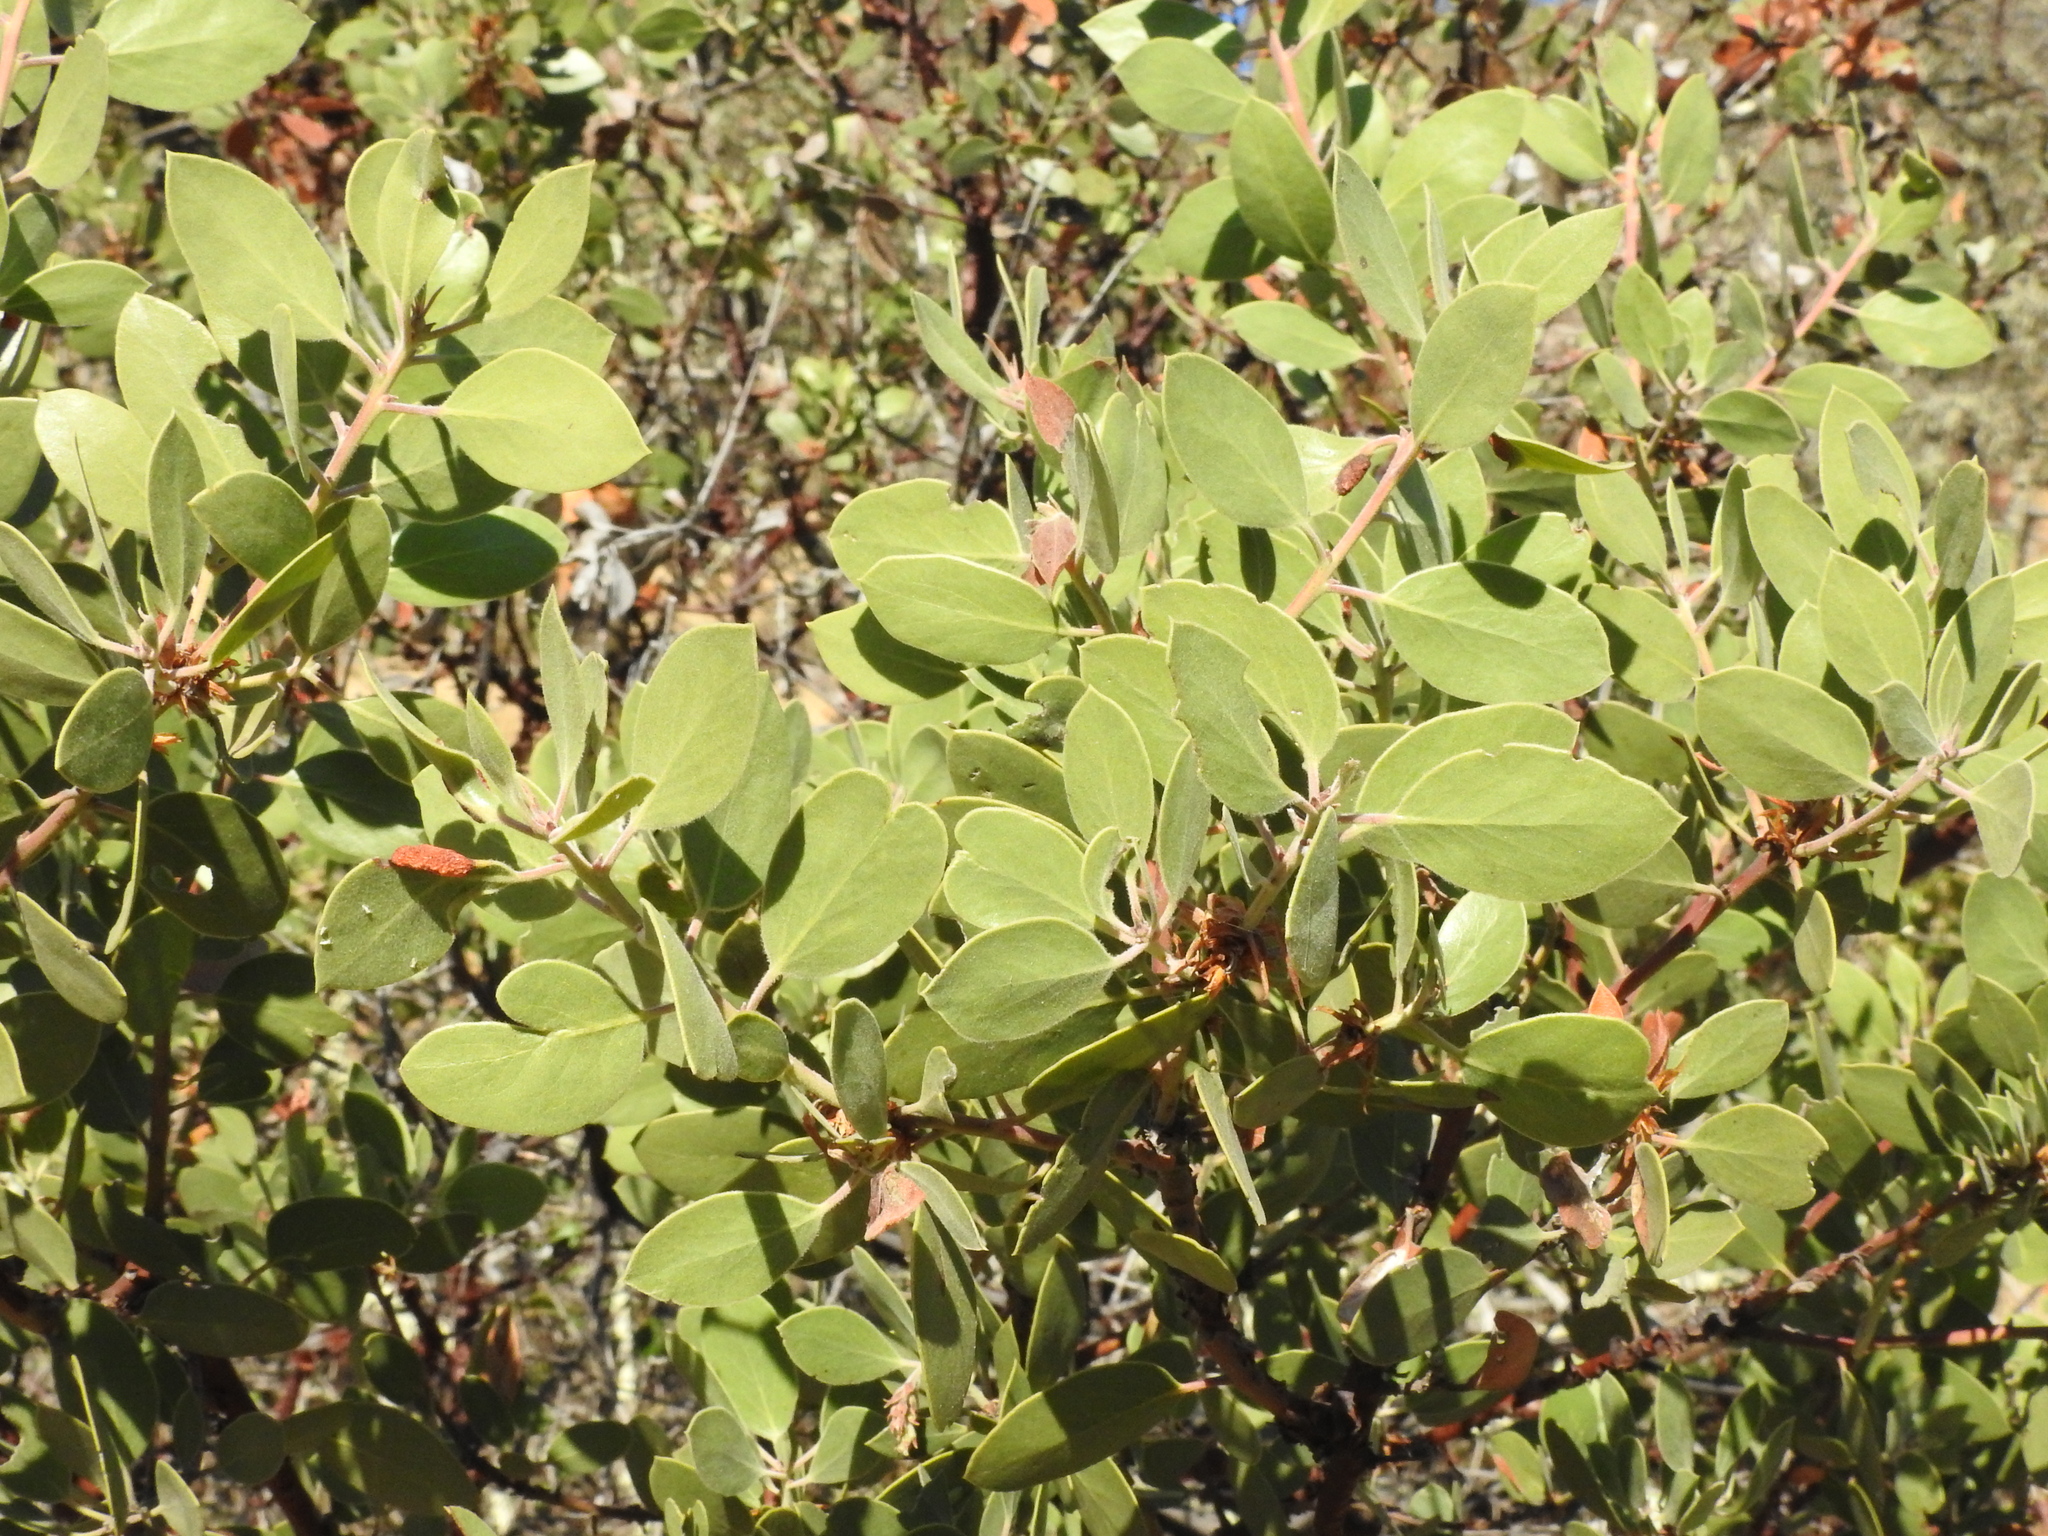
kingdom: Plantae
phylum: Tracheophyta
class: Magnoliopsida
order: Ericales
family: Ericaceae
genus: Arctostaphylos
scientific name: Arctostaphylos manzanita
